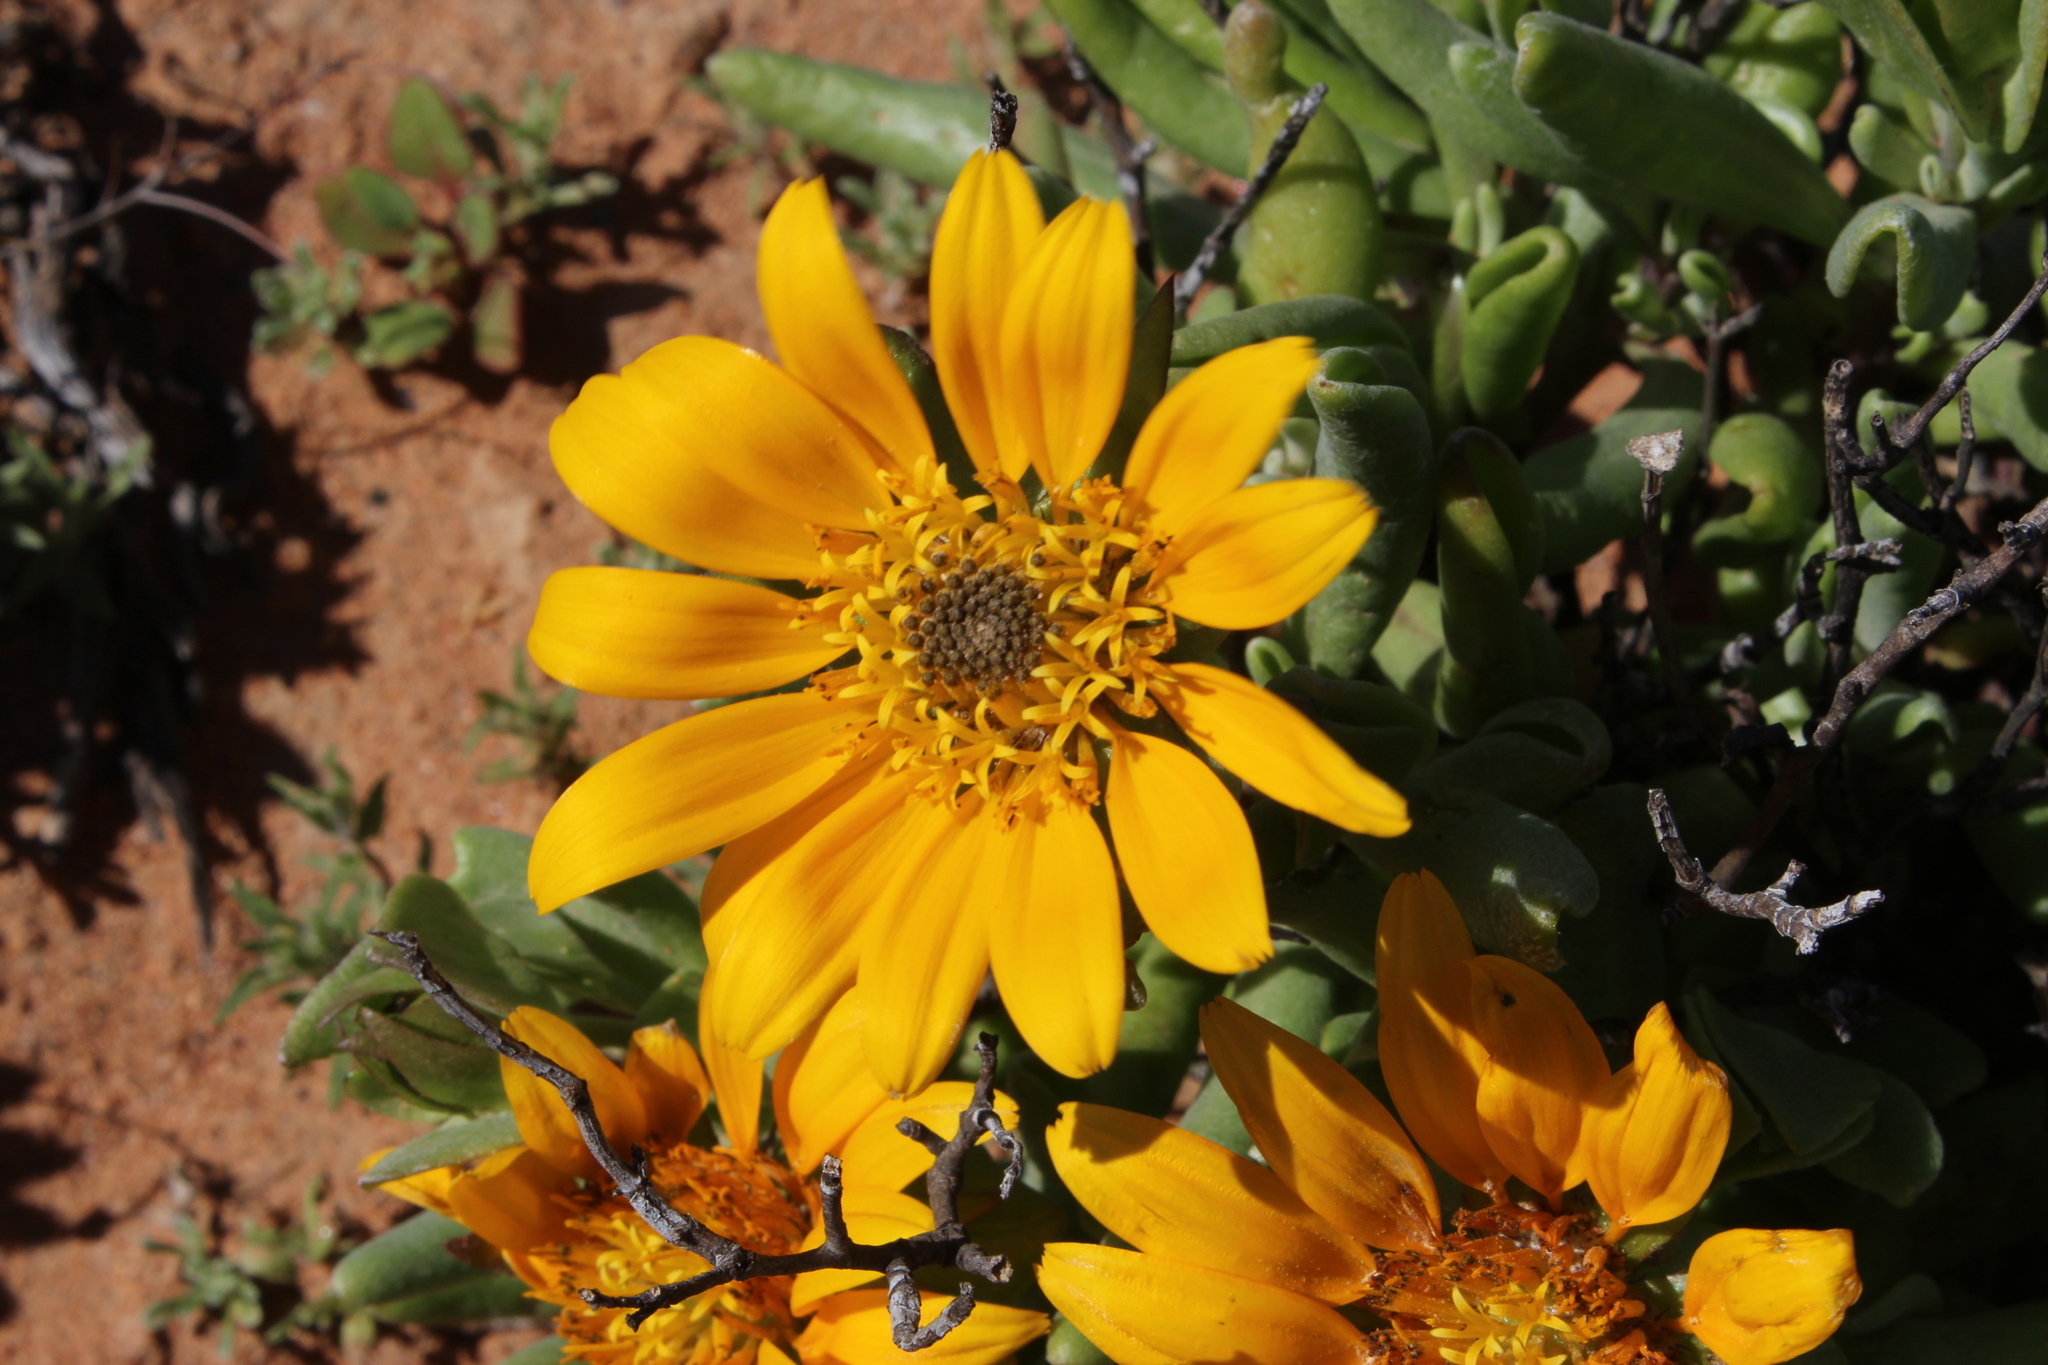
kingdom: Plantae
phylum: Tracheophyta
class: Magnoliopsida
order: Asterales
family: Asteraceae
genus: Didelta
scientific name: Didelta carnosa
